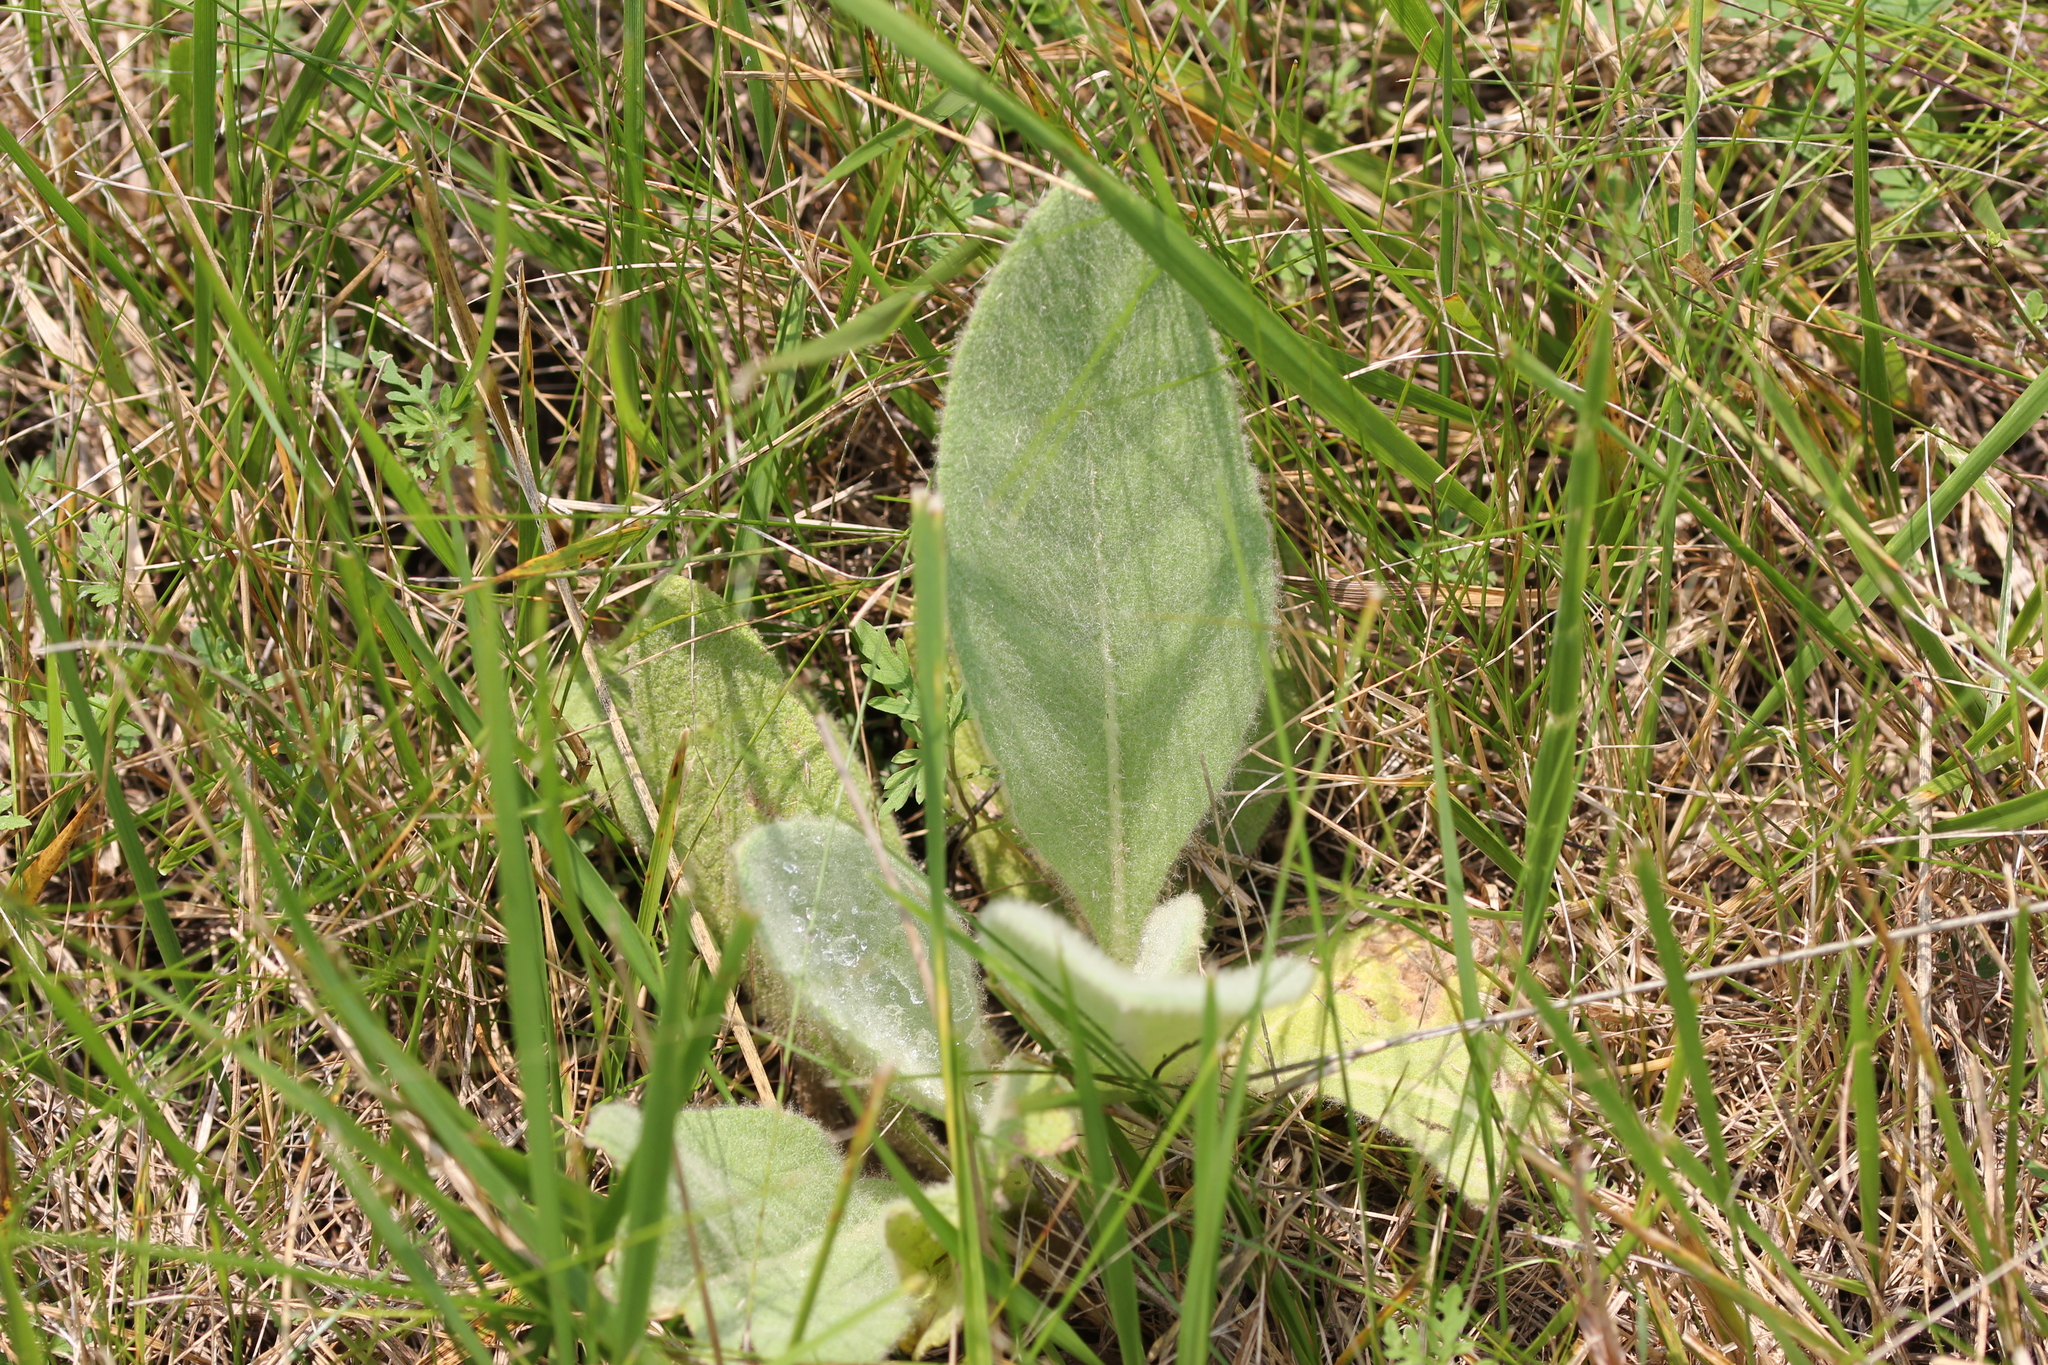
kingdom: Plantae
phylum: Tracheophyta
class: Magnoliopsida
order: Lamiales
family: Scrophulariaceae
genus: Verbascum
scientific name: Verbascum thapsus
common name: Common mullein
